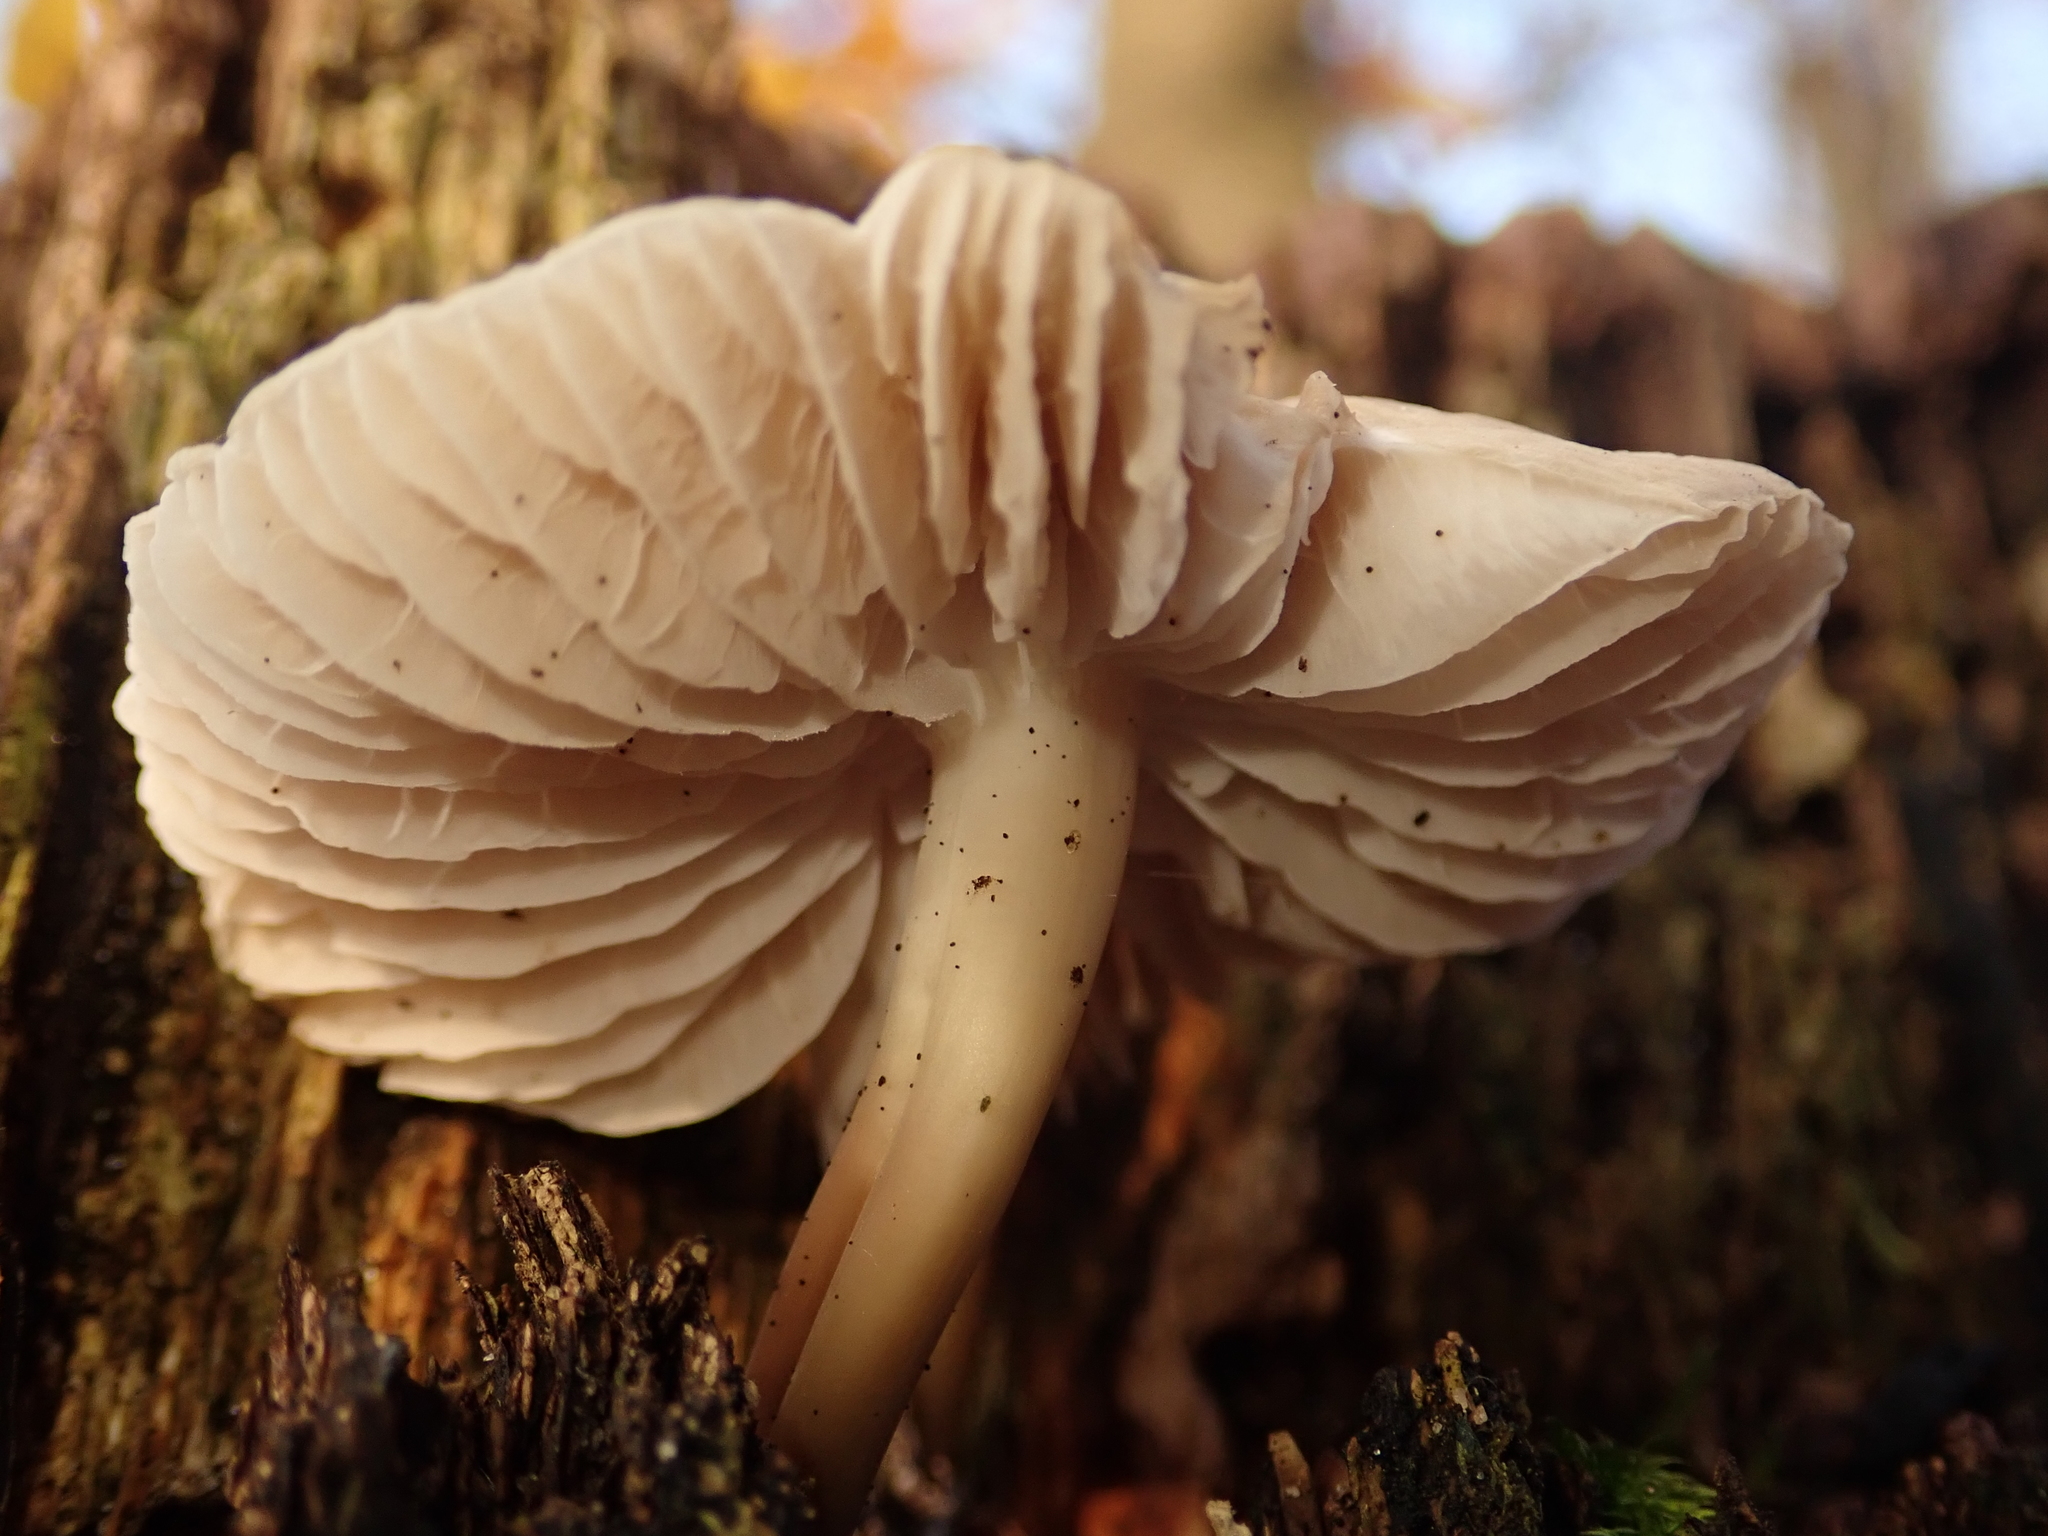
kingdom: Fungi
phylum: Basidiomycota
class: Agaricomycetes
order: Agaricales
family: Mycenaceae
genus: Mycena
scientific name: Mycena galericulata
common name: Bonnet mycena
